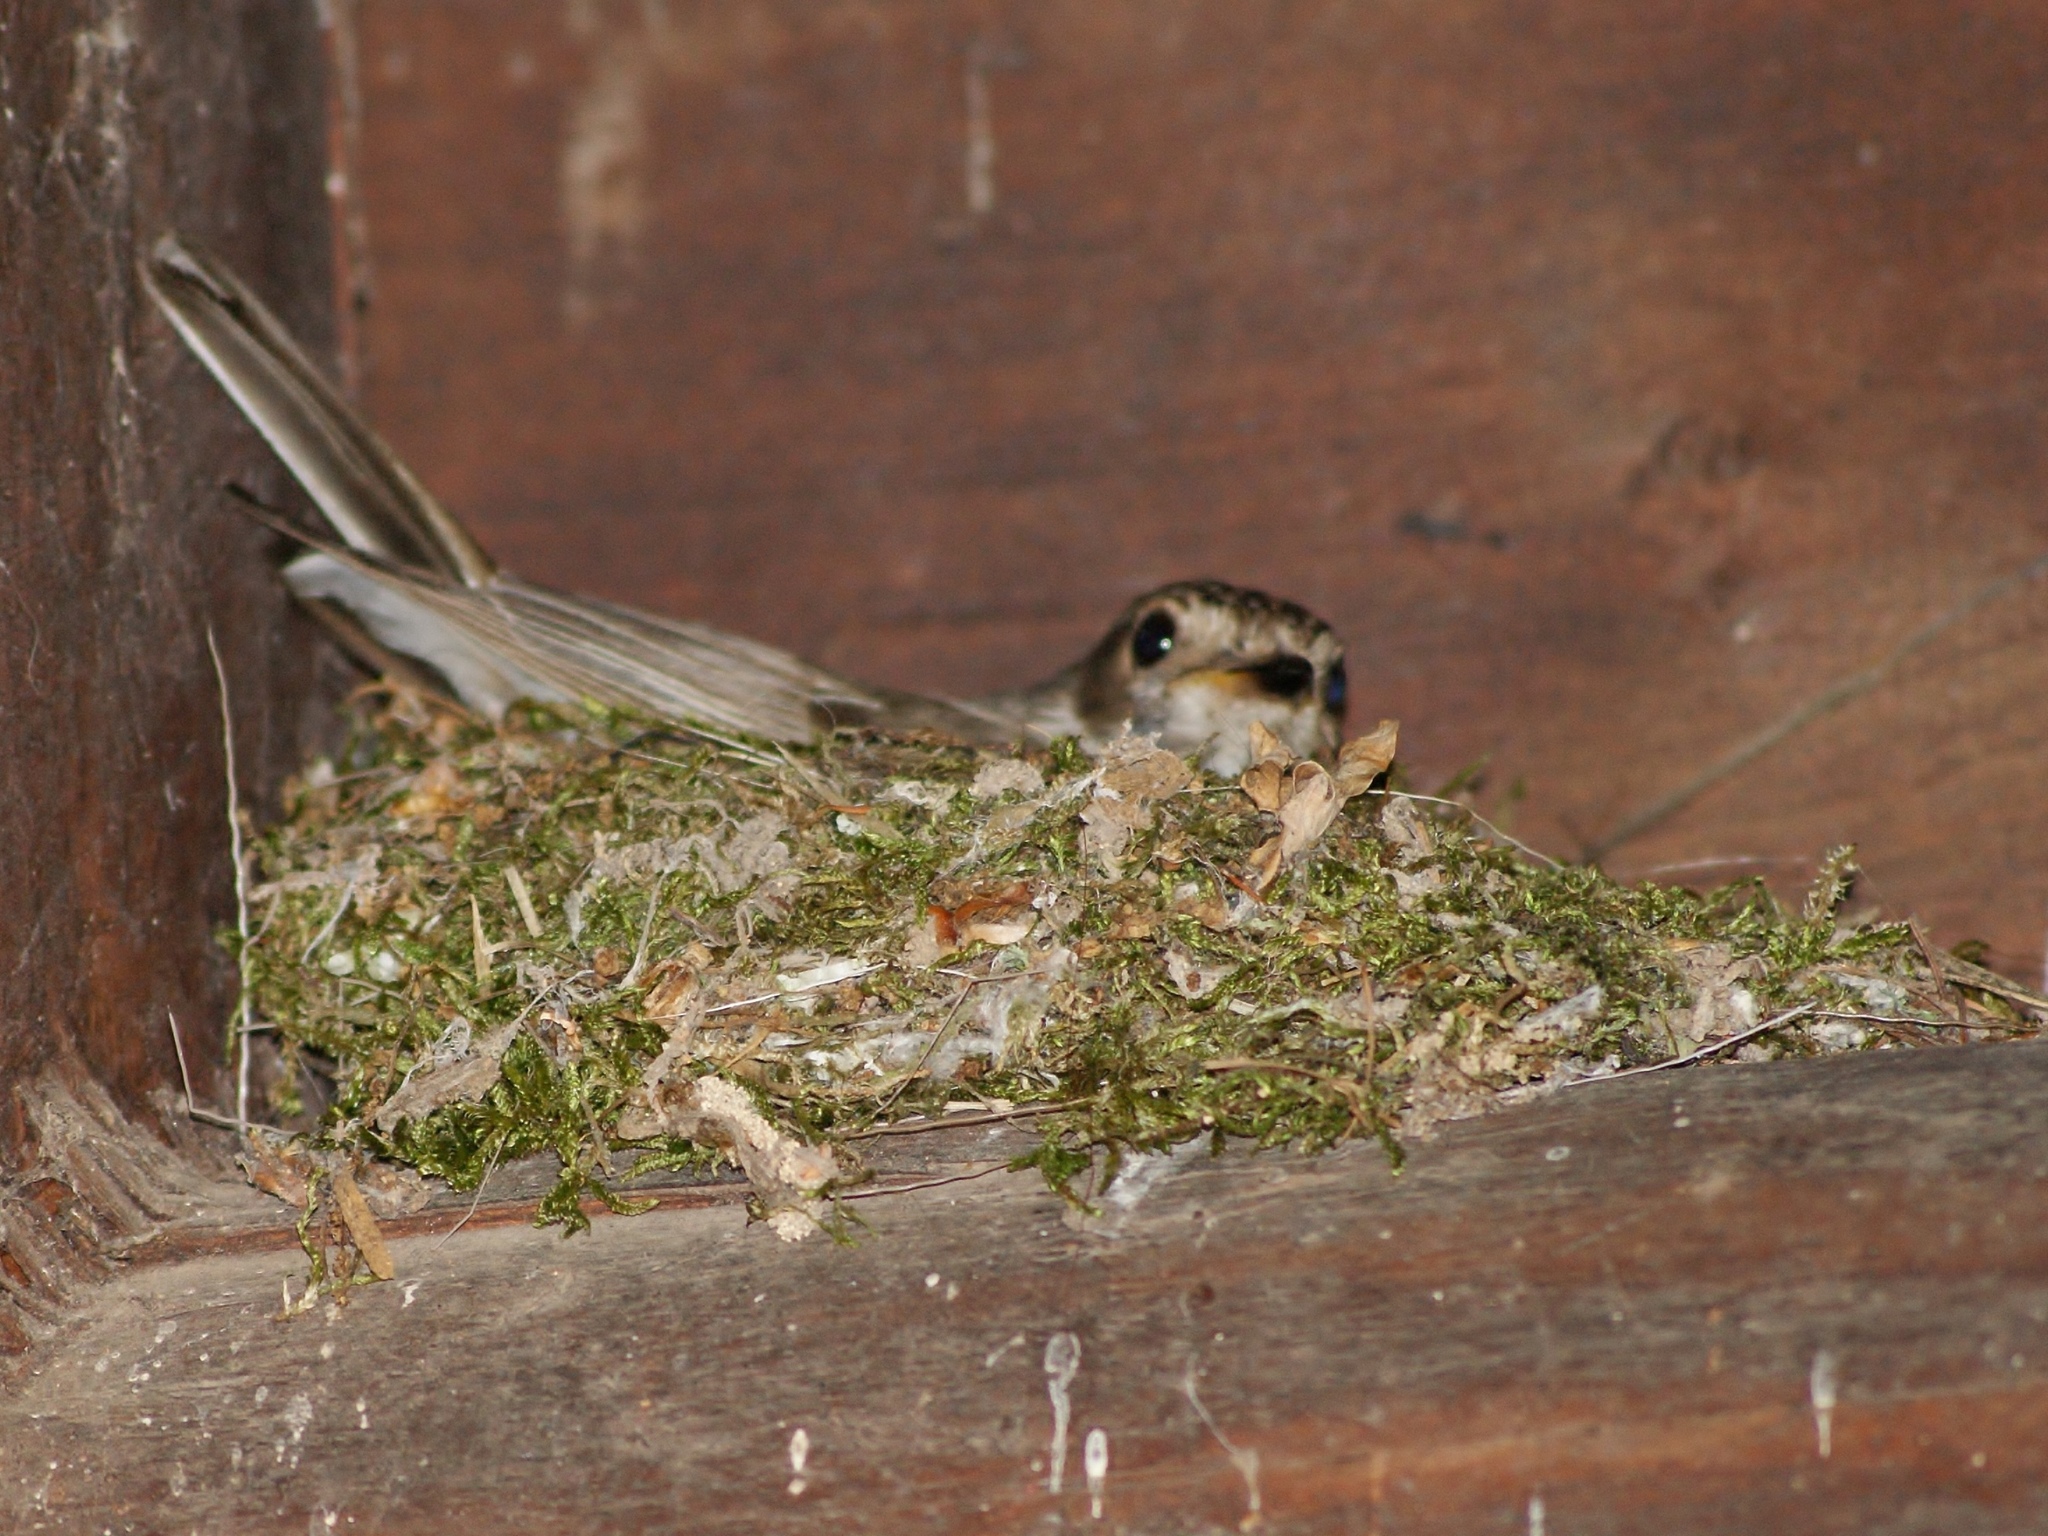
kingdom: Animalia
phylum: Chordata
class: Aves
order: Passeriformes
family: Muscicapidae
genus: Muscicapa
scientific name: Muscicapa striata
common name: Spotted flycatcher
